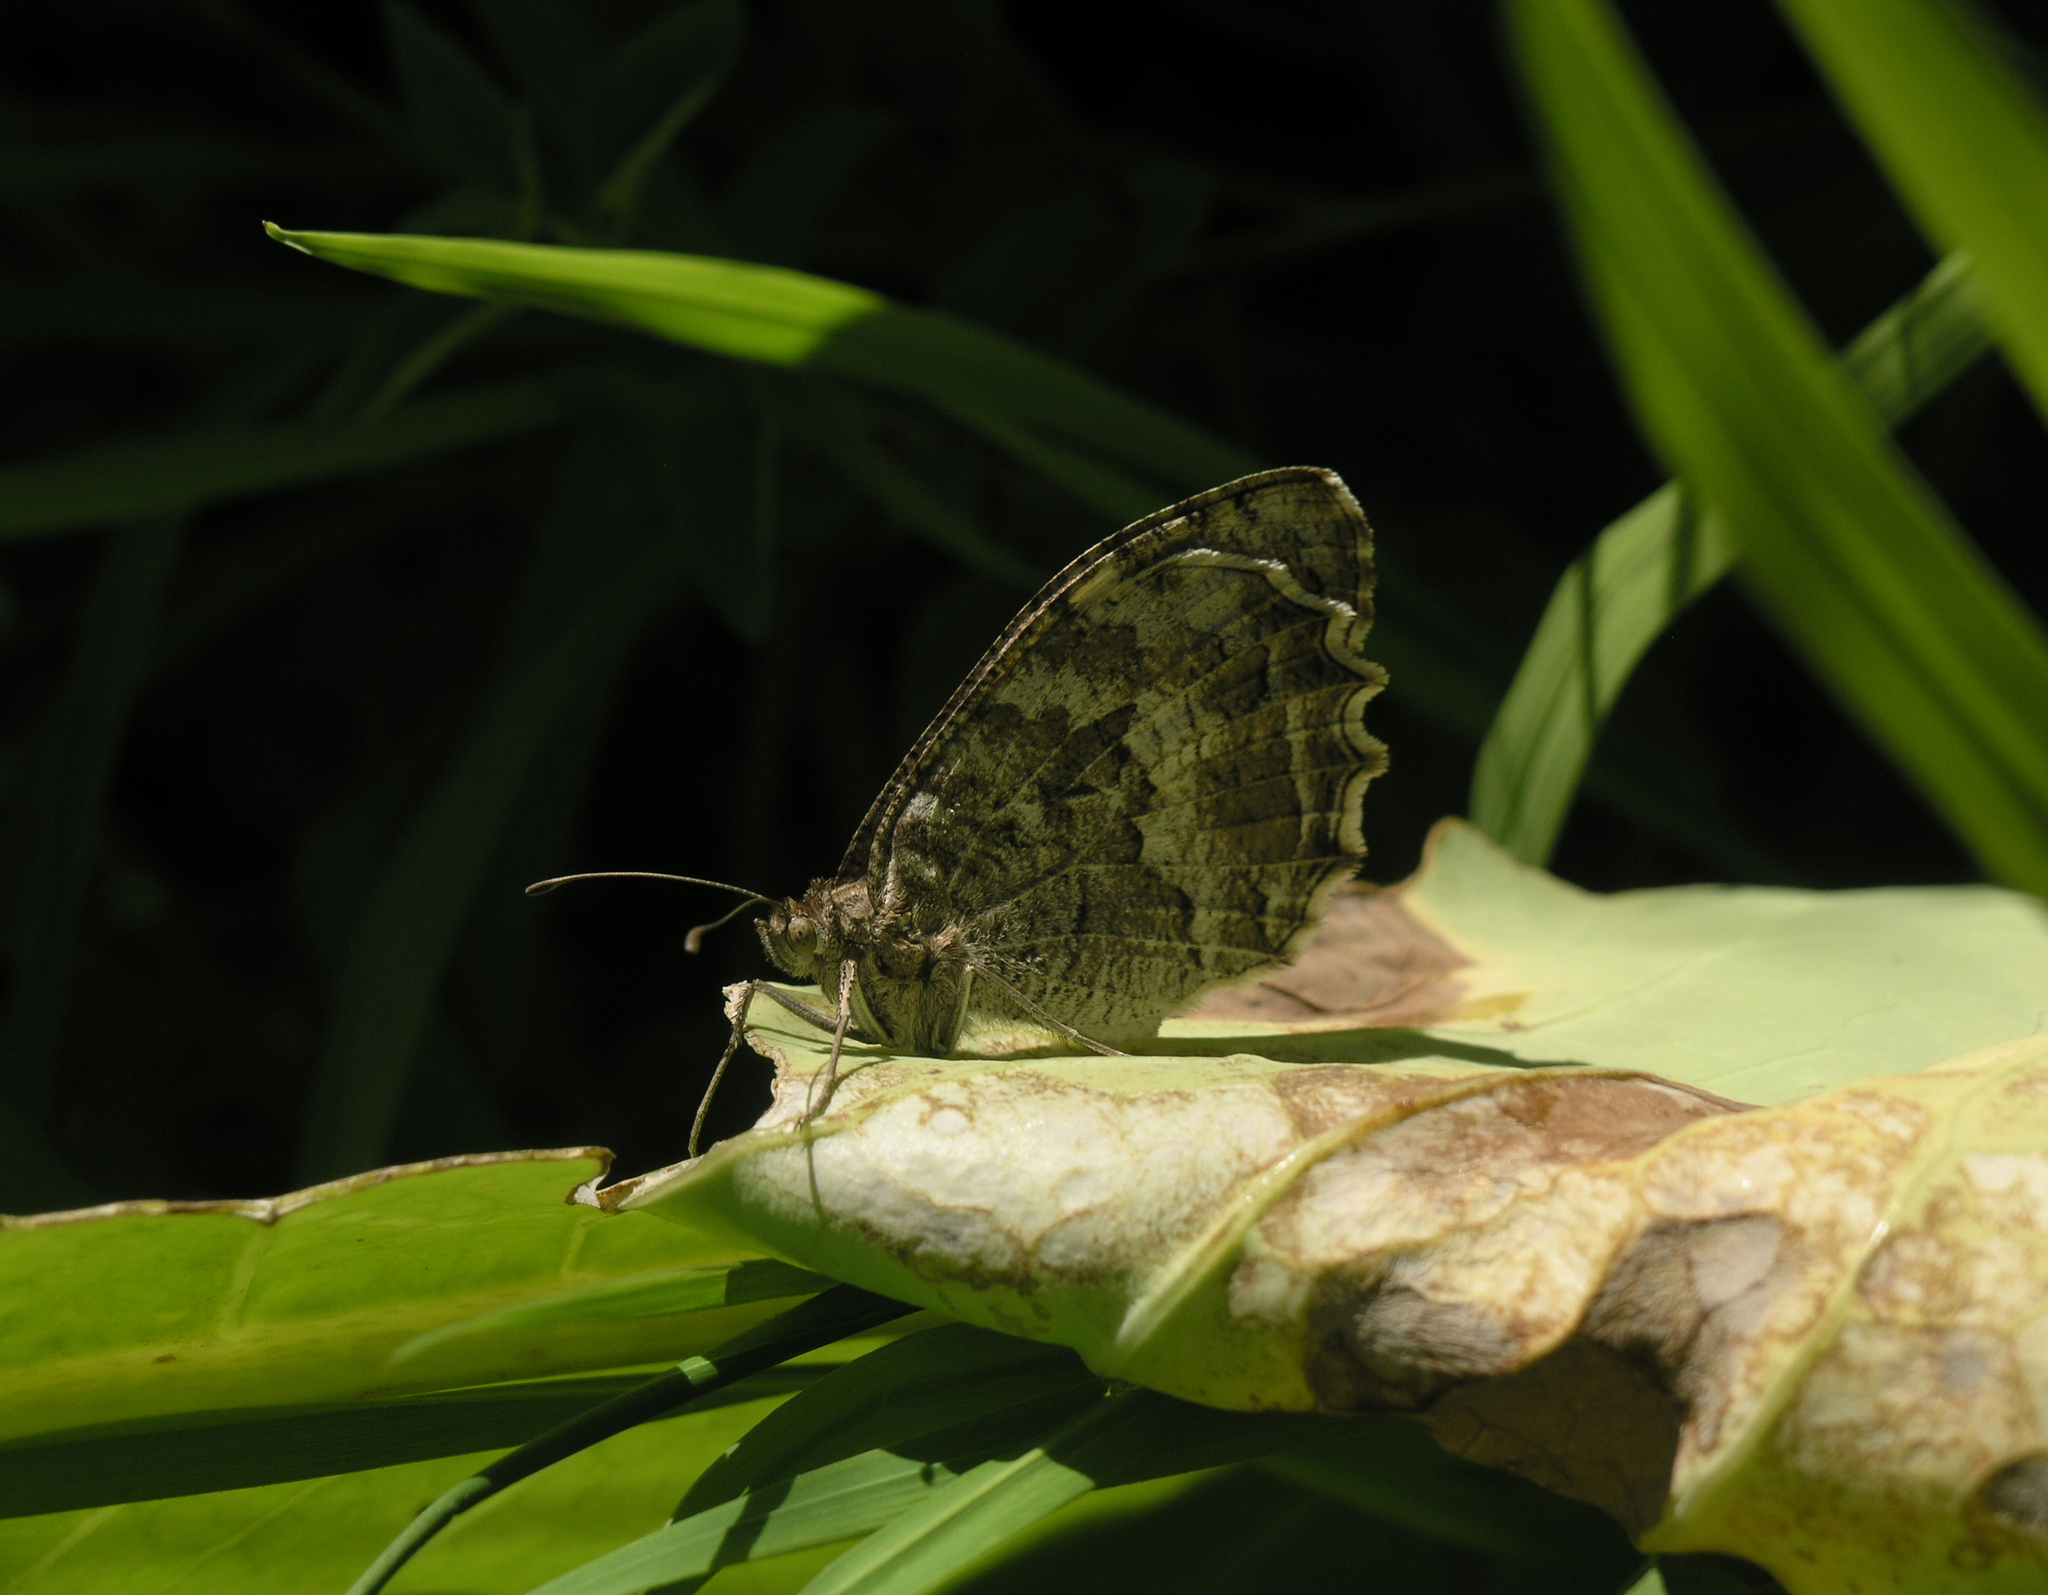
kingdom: Animalia
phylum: Arthropoda
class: Insecta
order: Lepidoptera
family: Nymphalidae
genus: Satyrus
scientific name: Satyrus Chazara enervata
